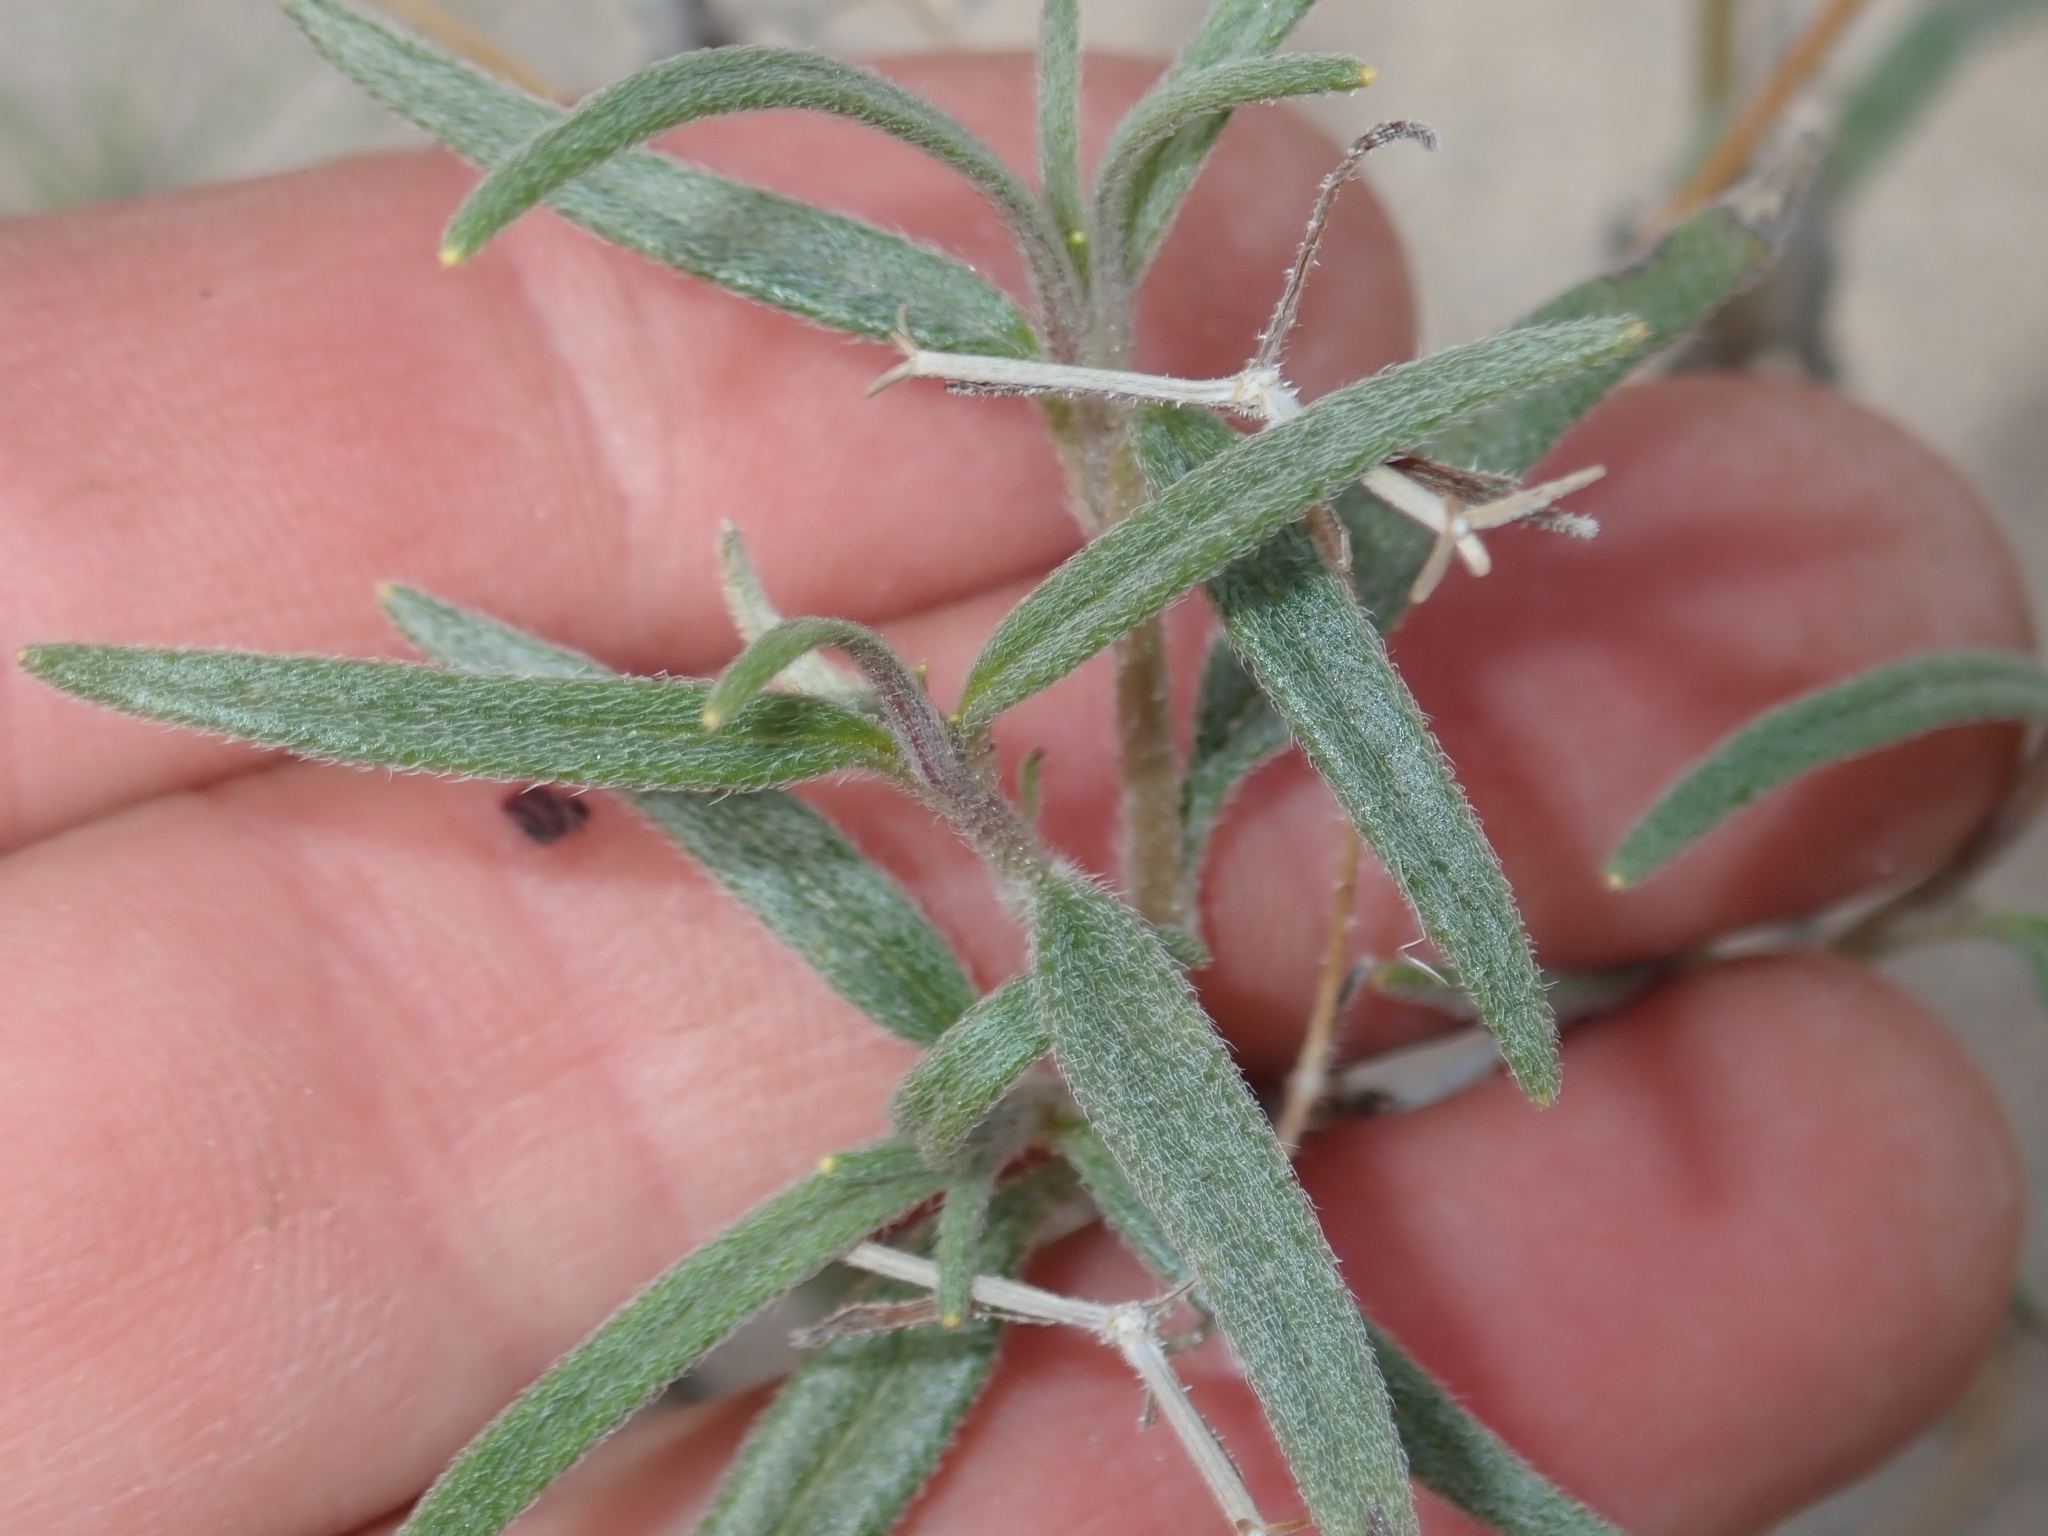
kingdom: Plantae
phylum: Tracheophyta
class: Magnoliopsida
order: Asterales
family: Asteraceae
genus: Palafoxia
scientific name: Palafoxia arida
